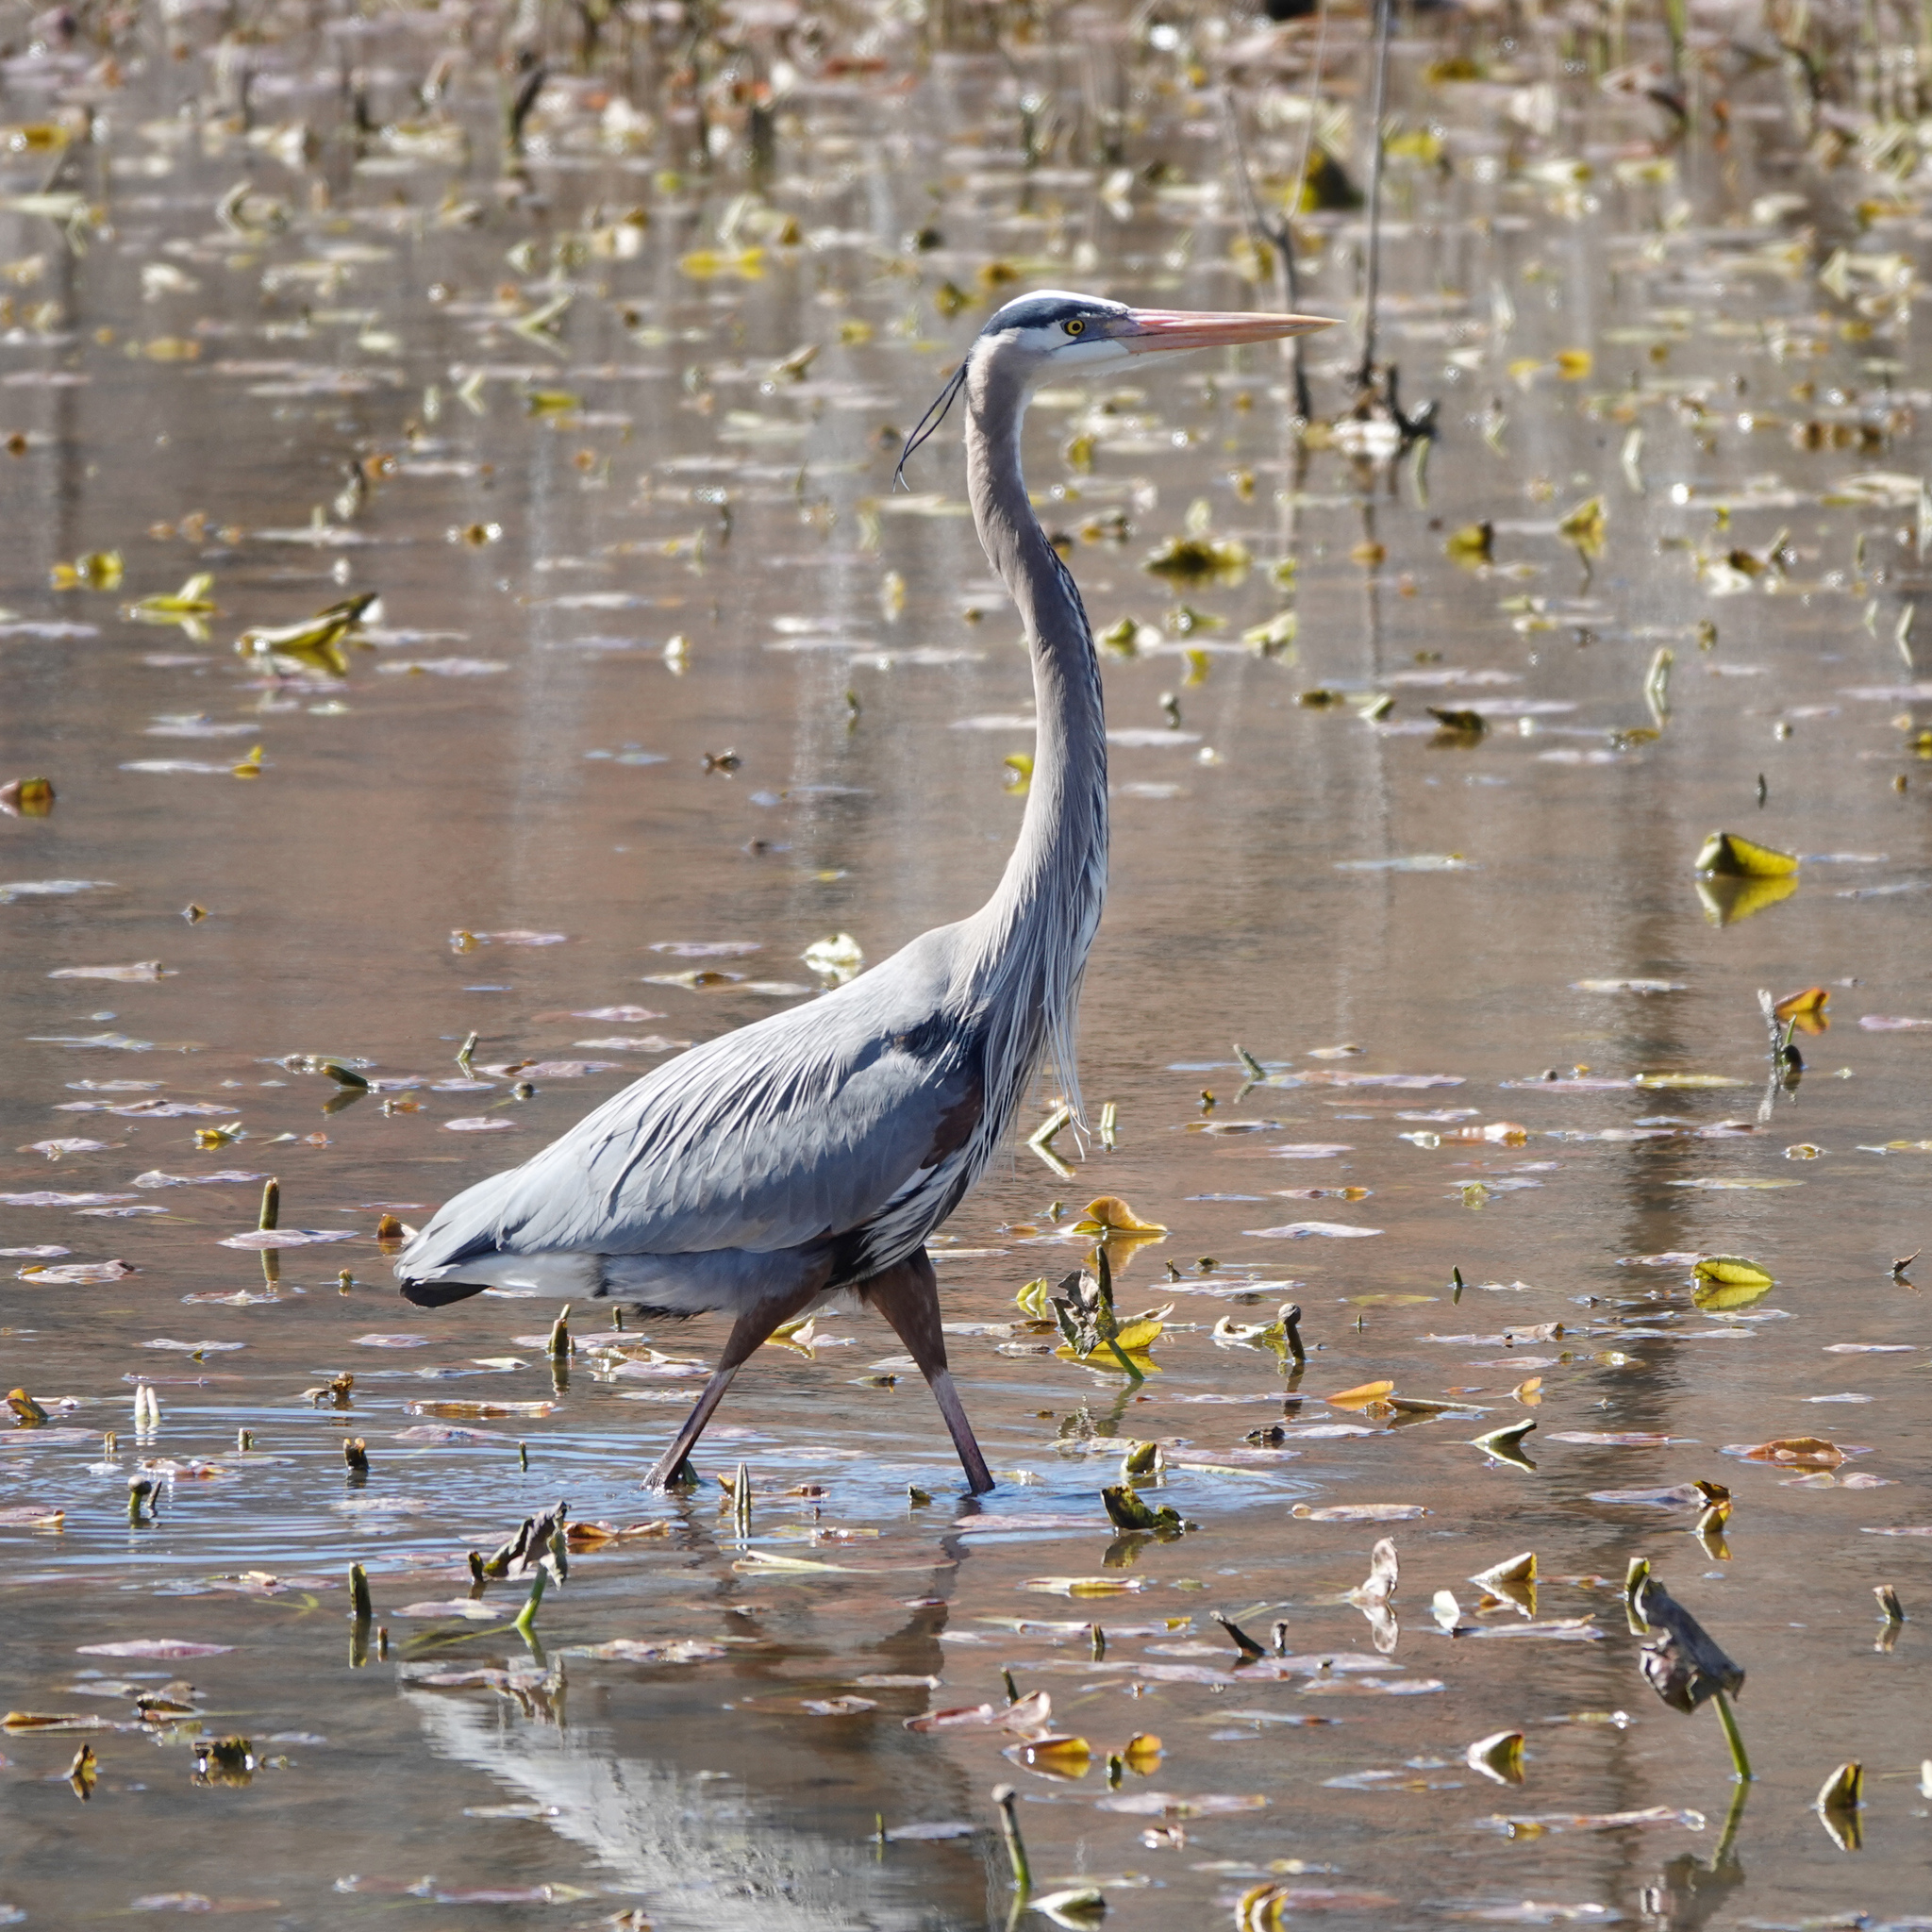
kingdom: Animalia
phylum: Chordata
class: Aves
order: Pelecaniformes
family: Ardeidae
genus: Ardea
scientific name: Ardea herodias
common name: Great blue heron
